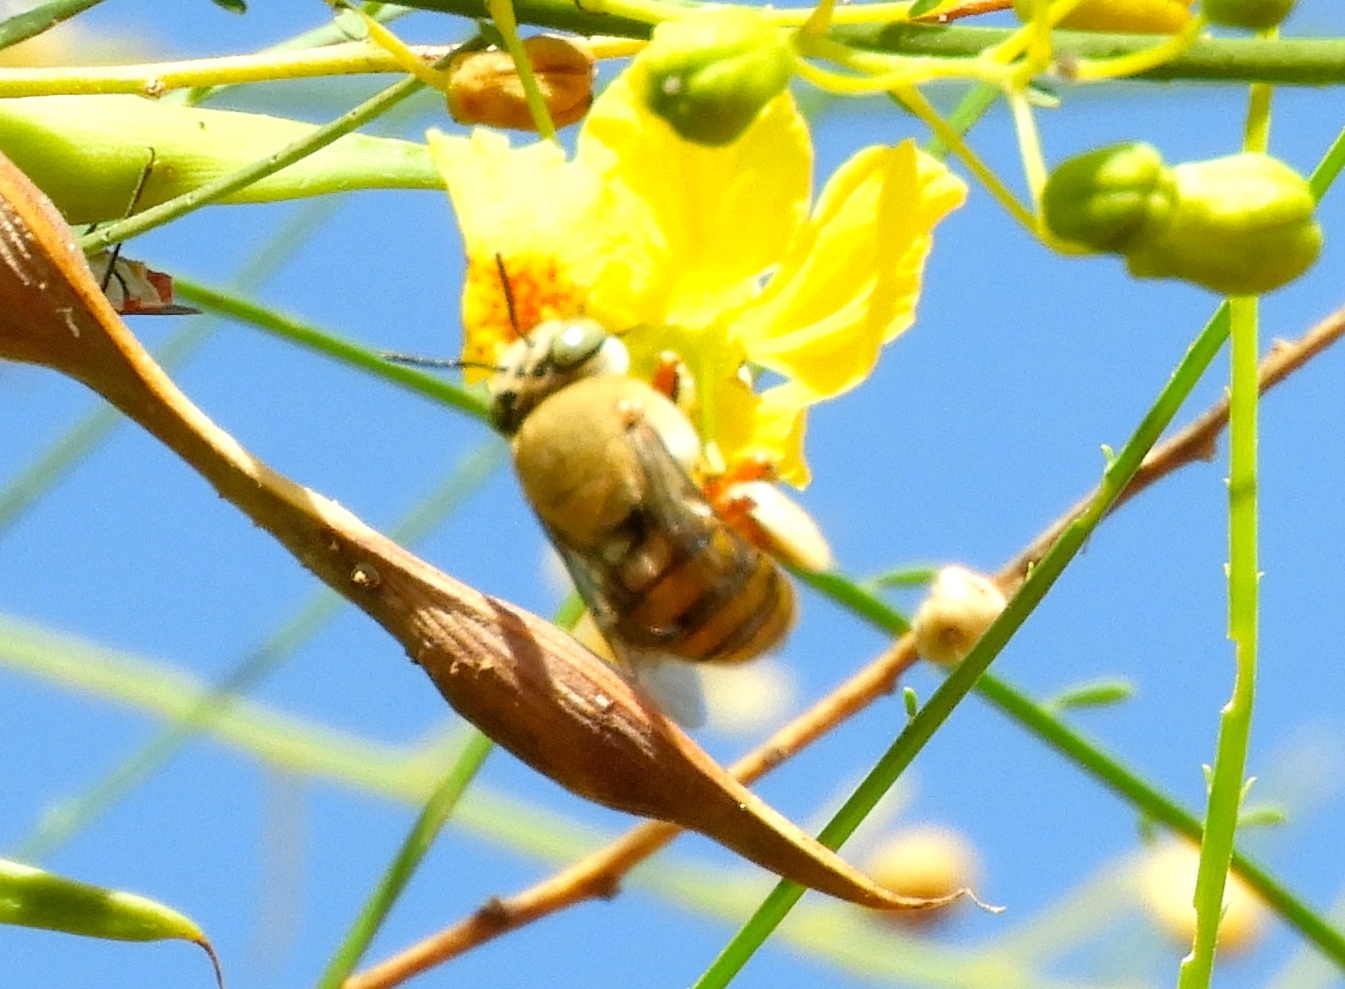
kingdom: Animalia
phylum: Arthropoda
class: Insecta
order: Hymenoptera
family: Apidae
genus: Centris
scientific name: Centris
